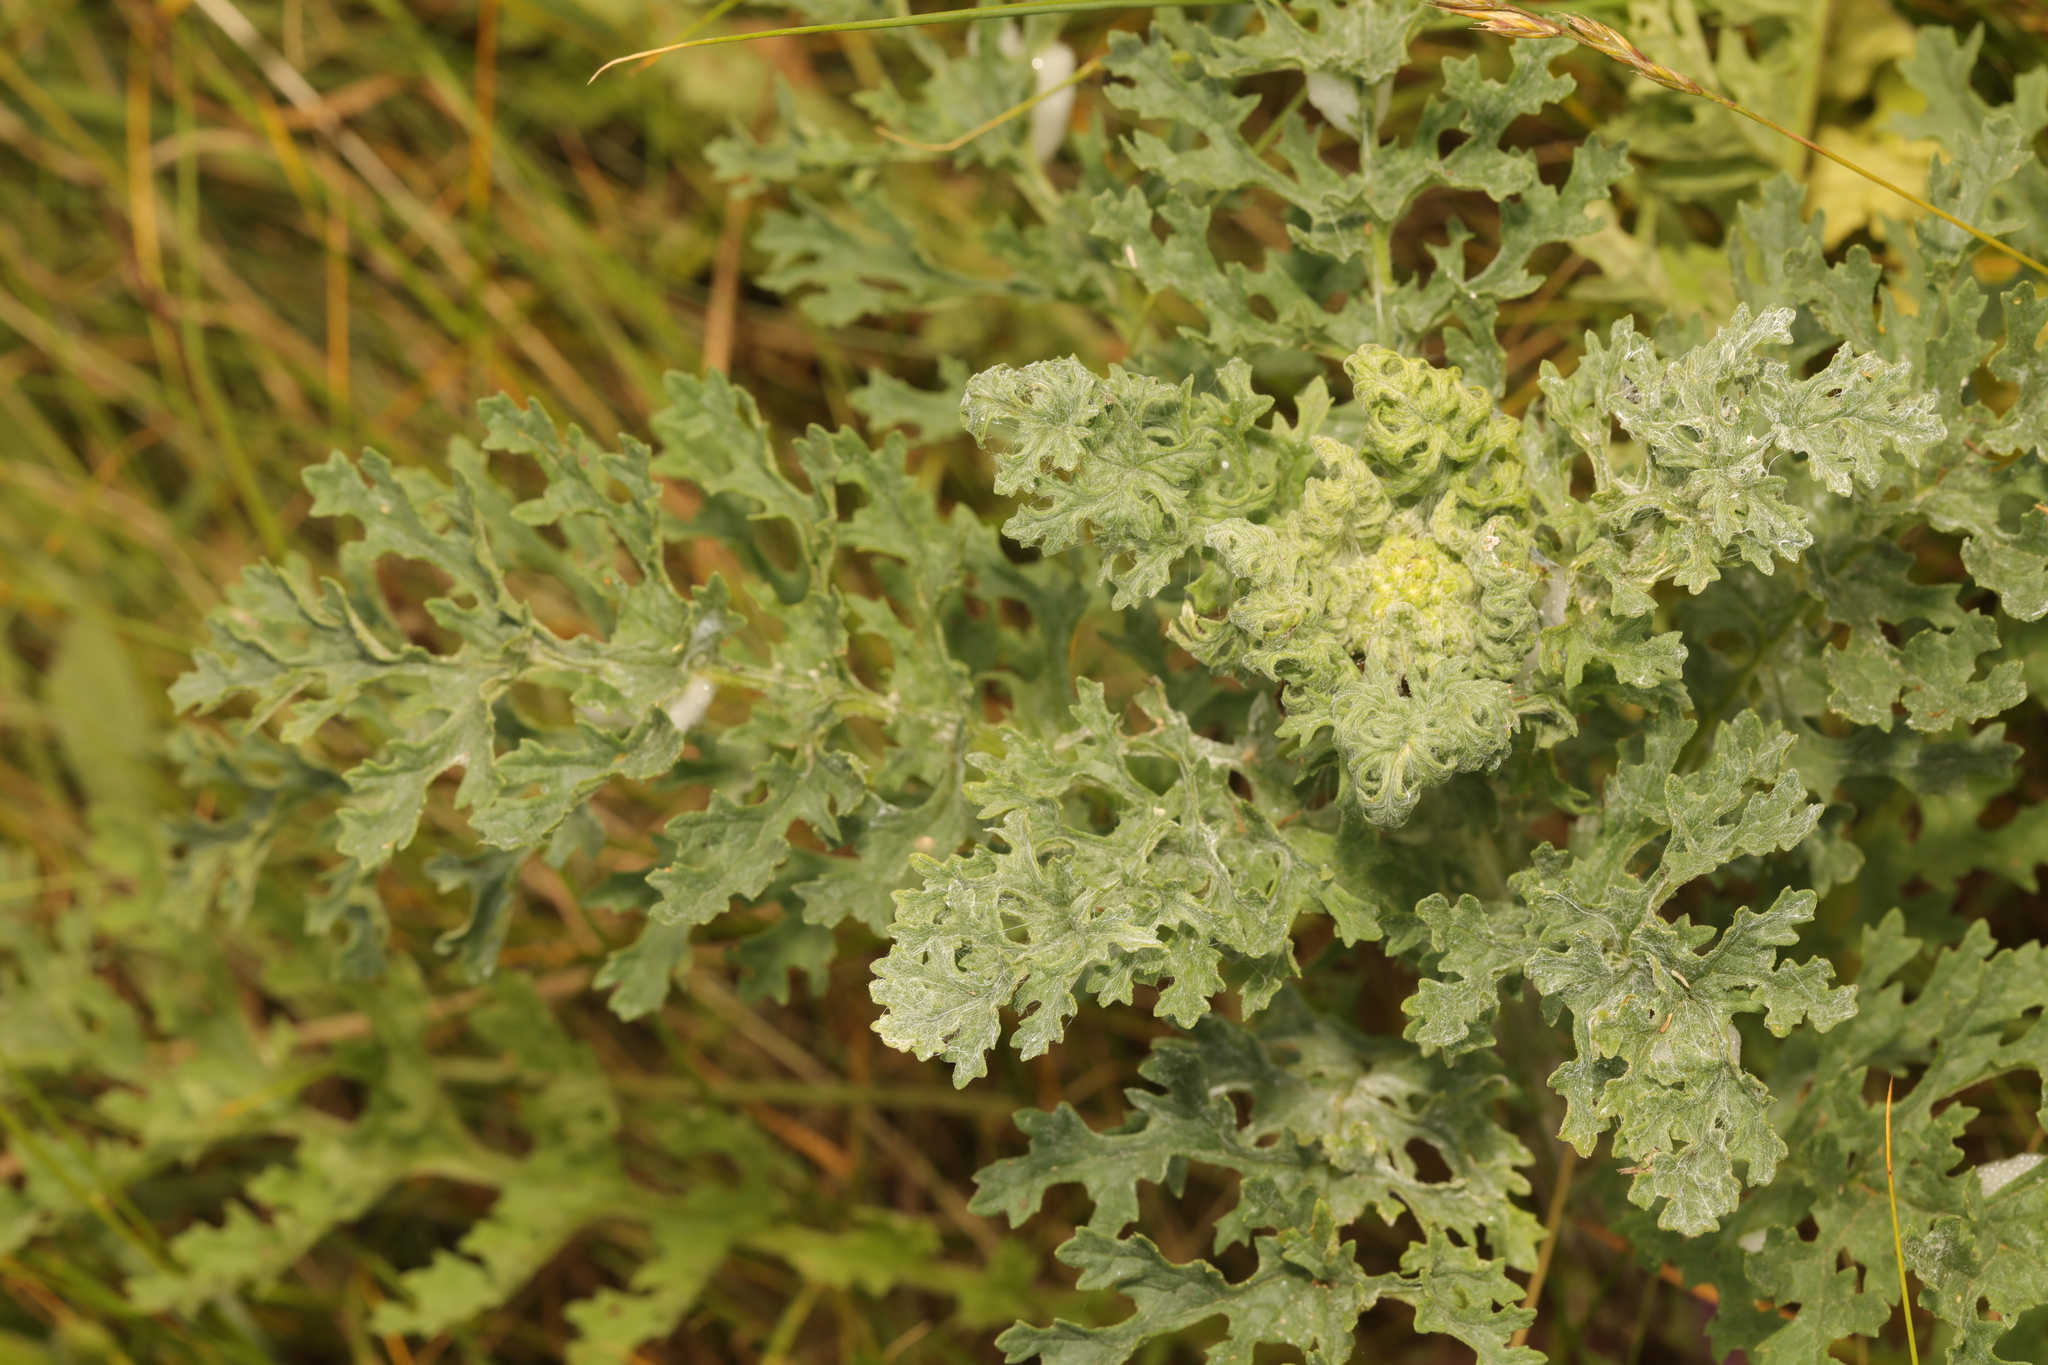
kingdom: Plantae
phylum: Tracheophyta
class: Magnoliopsida
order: Asterales
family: Asteraceae
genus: Jacobaea
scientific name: Jacobaea vulgaris
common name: Stinking willie
